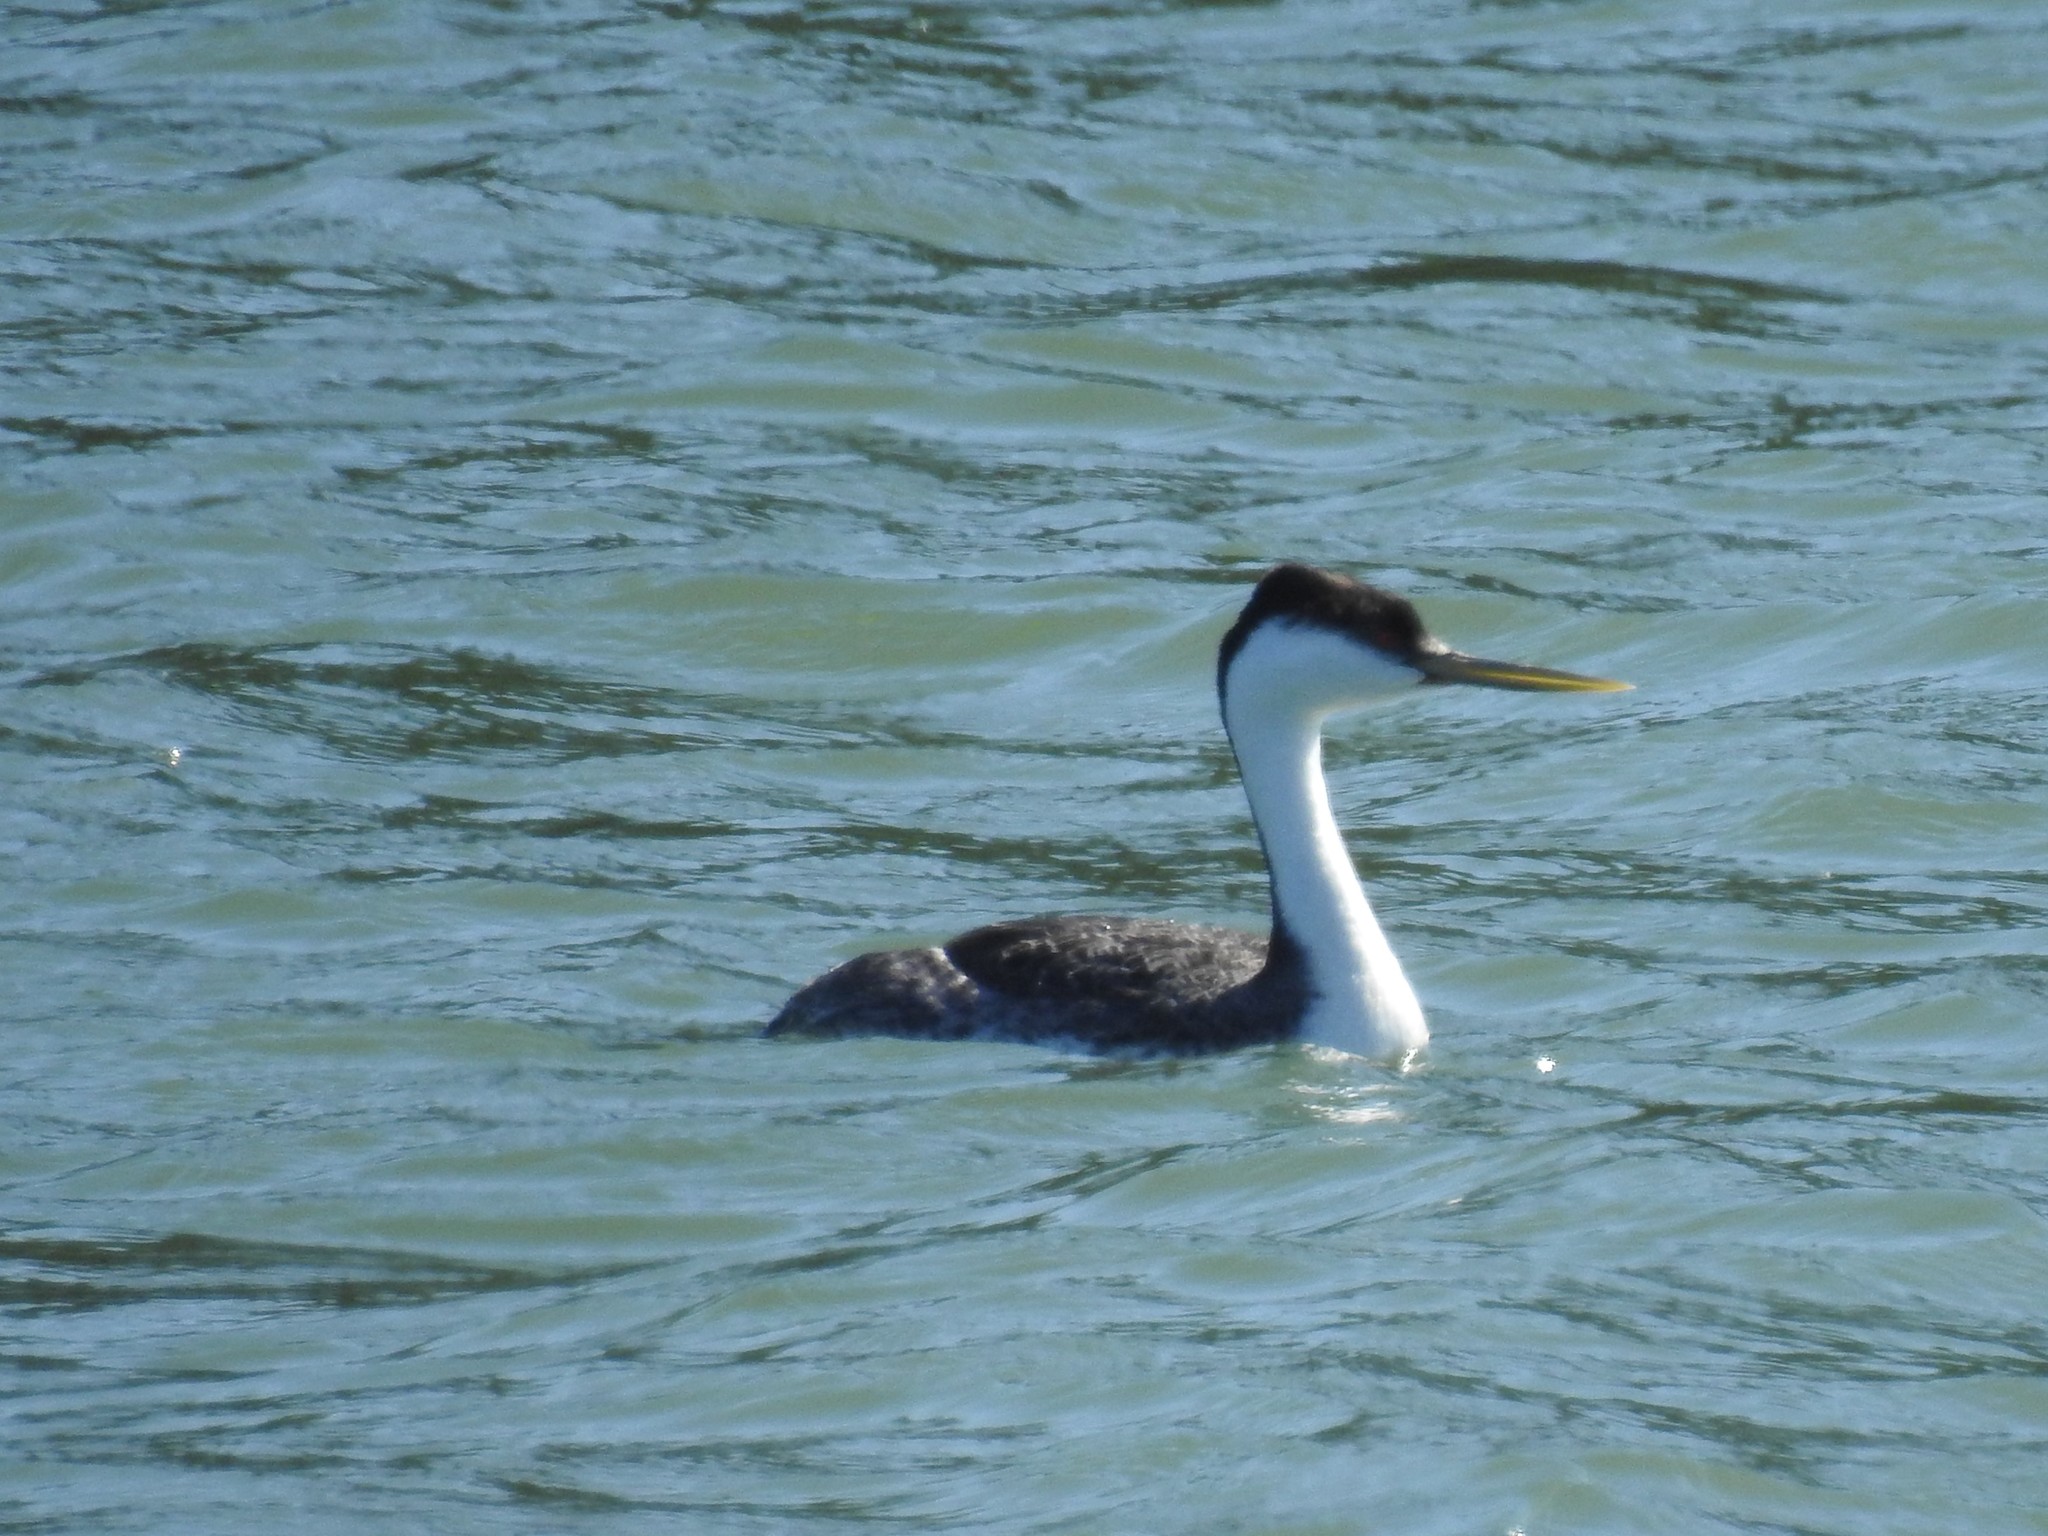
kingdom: Animalia
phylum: Chordata
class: Aves
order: Podicipediformes
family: Podicipedidae
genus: Aechmophorus
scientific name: Aechmophorus occidentalis
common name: Western grebe
